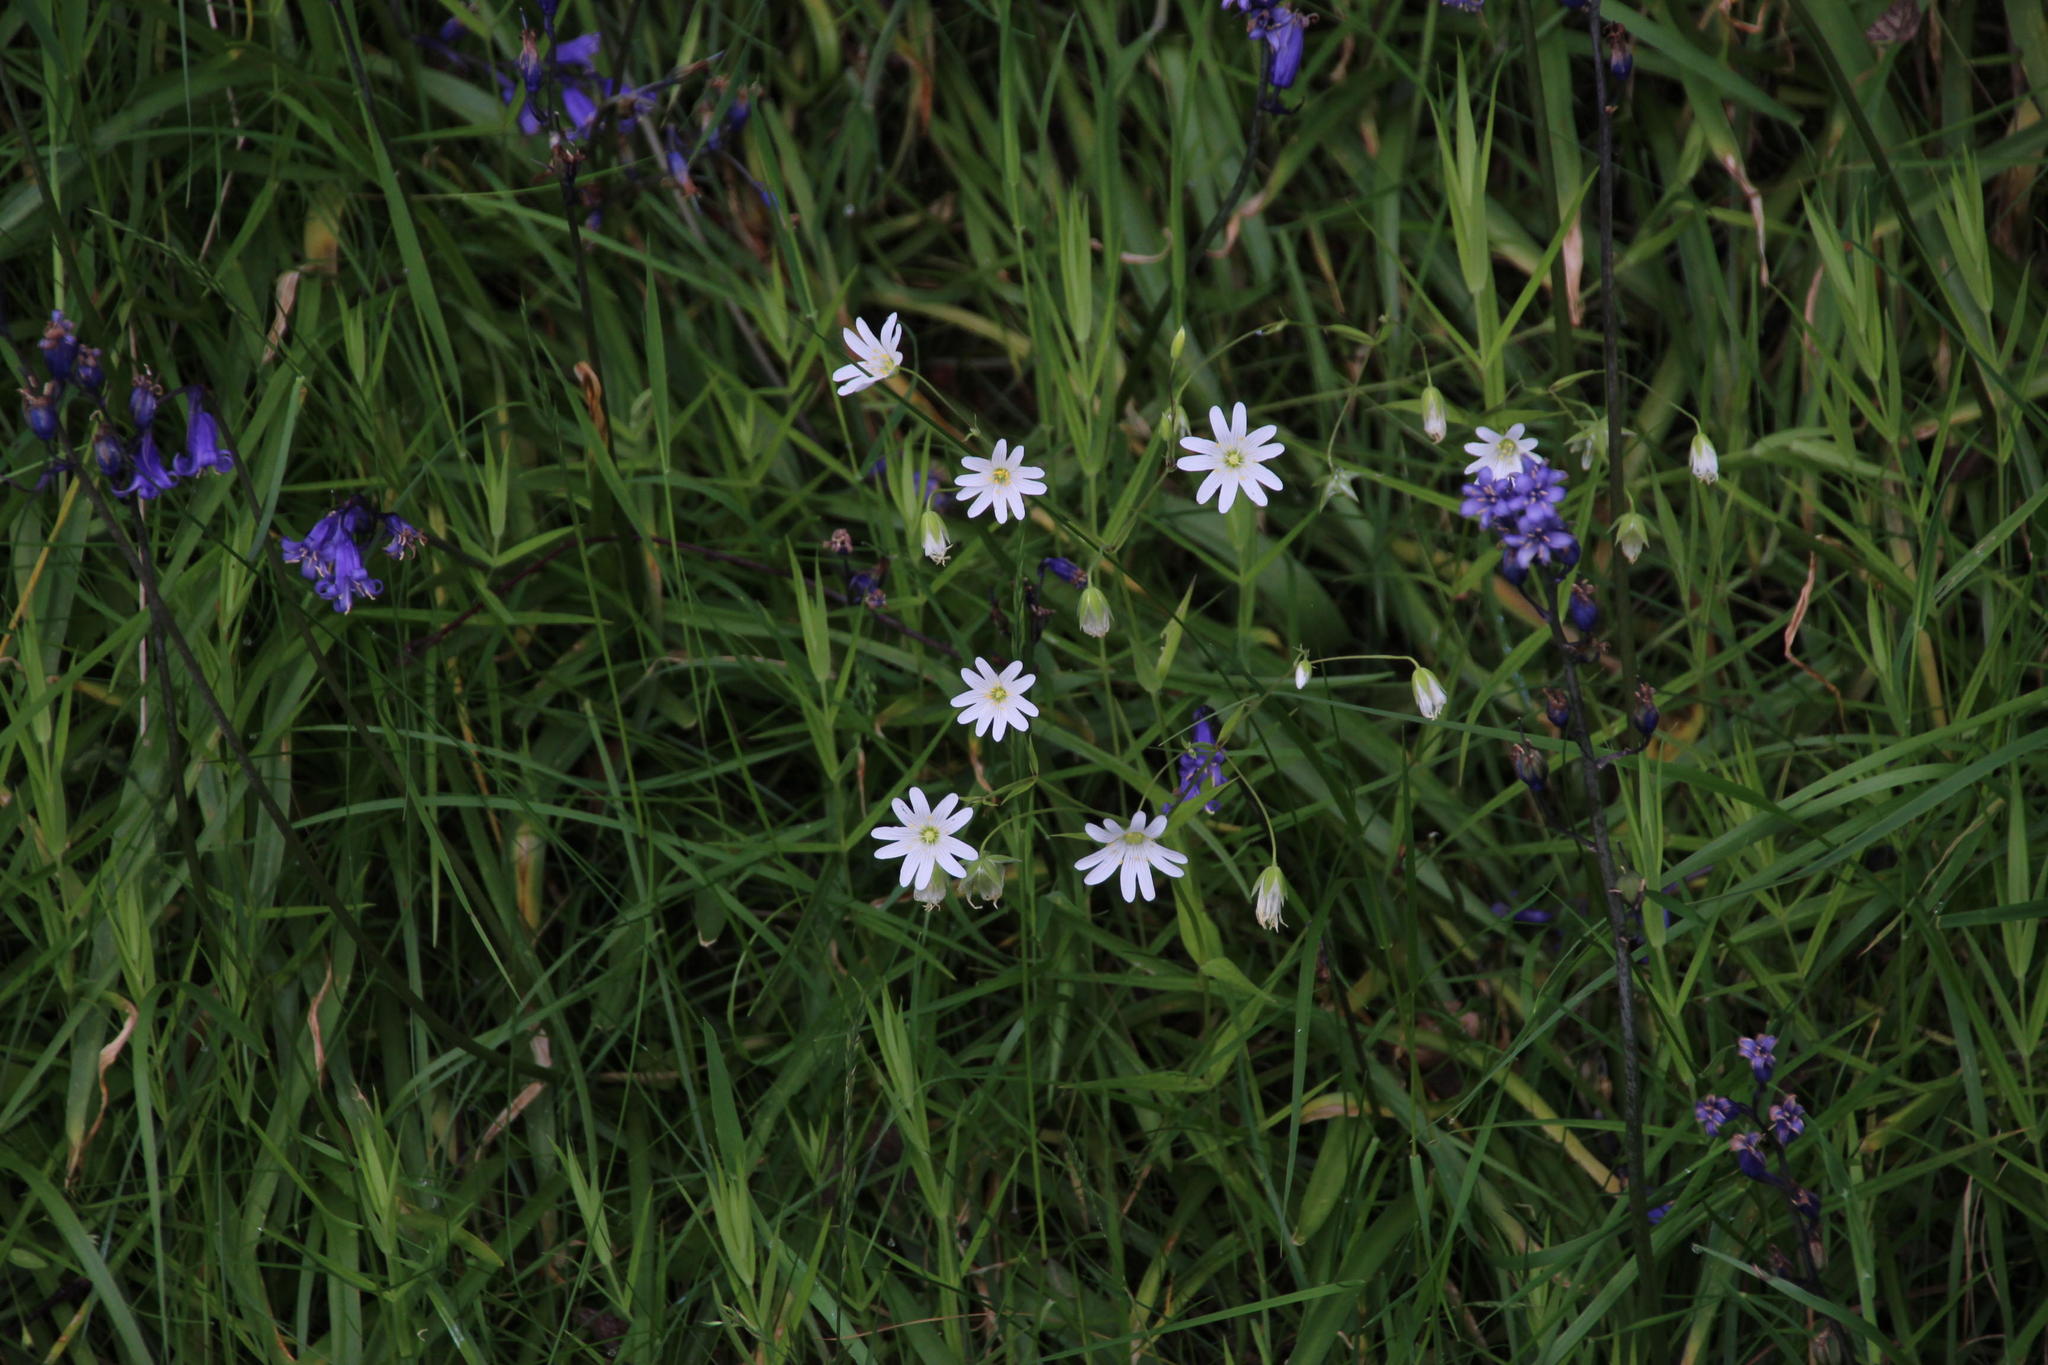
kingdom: Plantae
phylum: Tracheophyta
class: Magnoliopsida
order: Caryophyllales
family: Caryophyllaceae
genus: Rabelera
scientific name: Rabelera holostea
